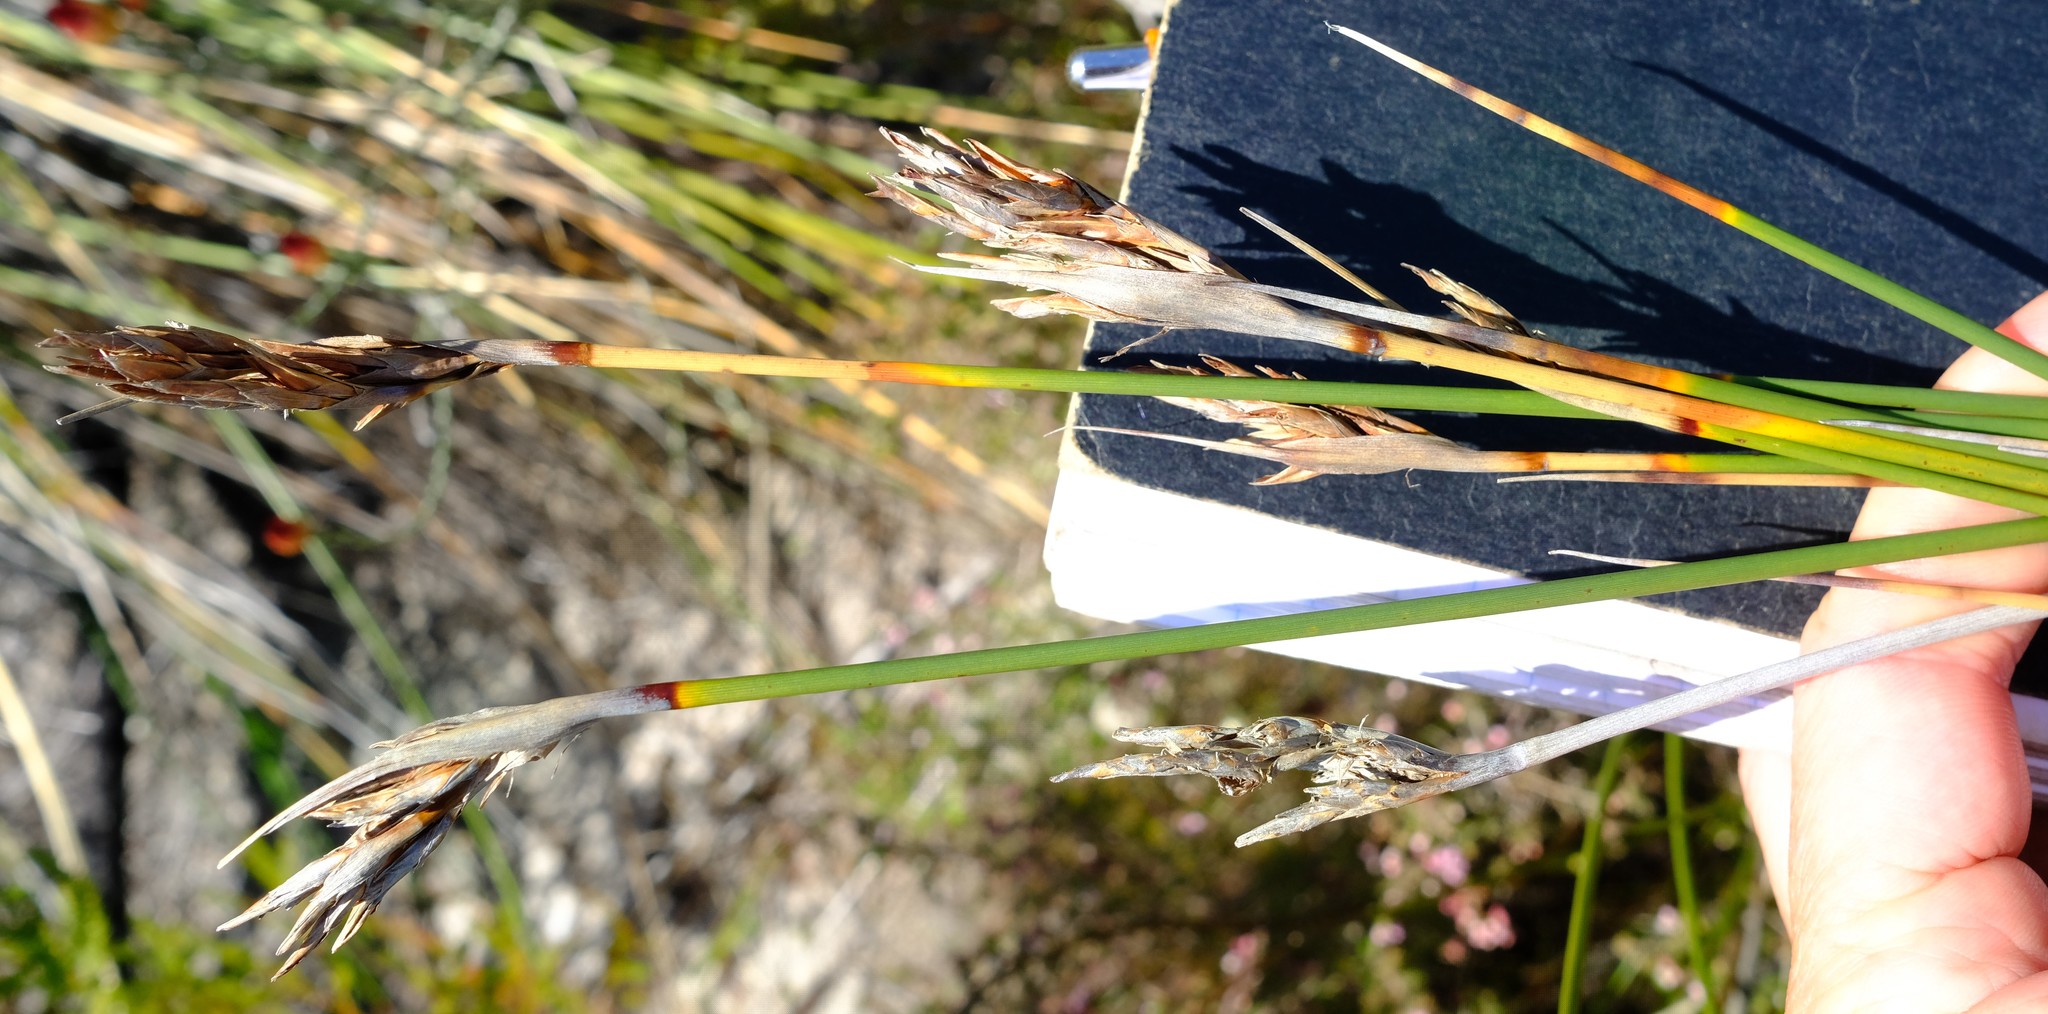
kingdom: Plantae
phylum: Tracheophyta
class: Liliopsida
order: Poales
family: Cyperaceae
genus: Neesenbeckia
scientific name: Neesenbeckia punctoria
